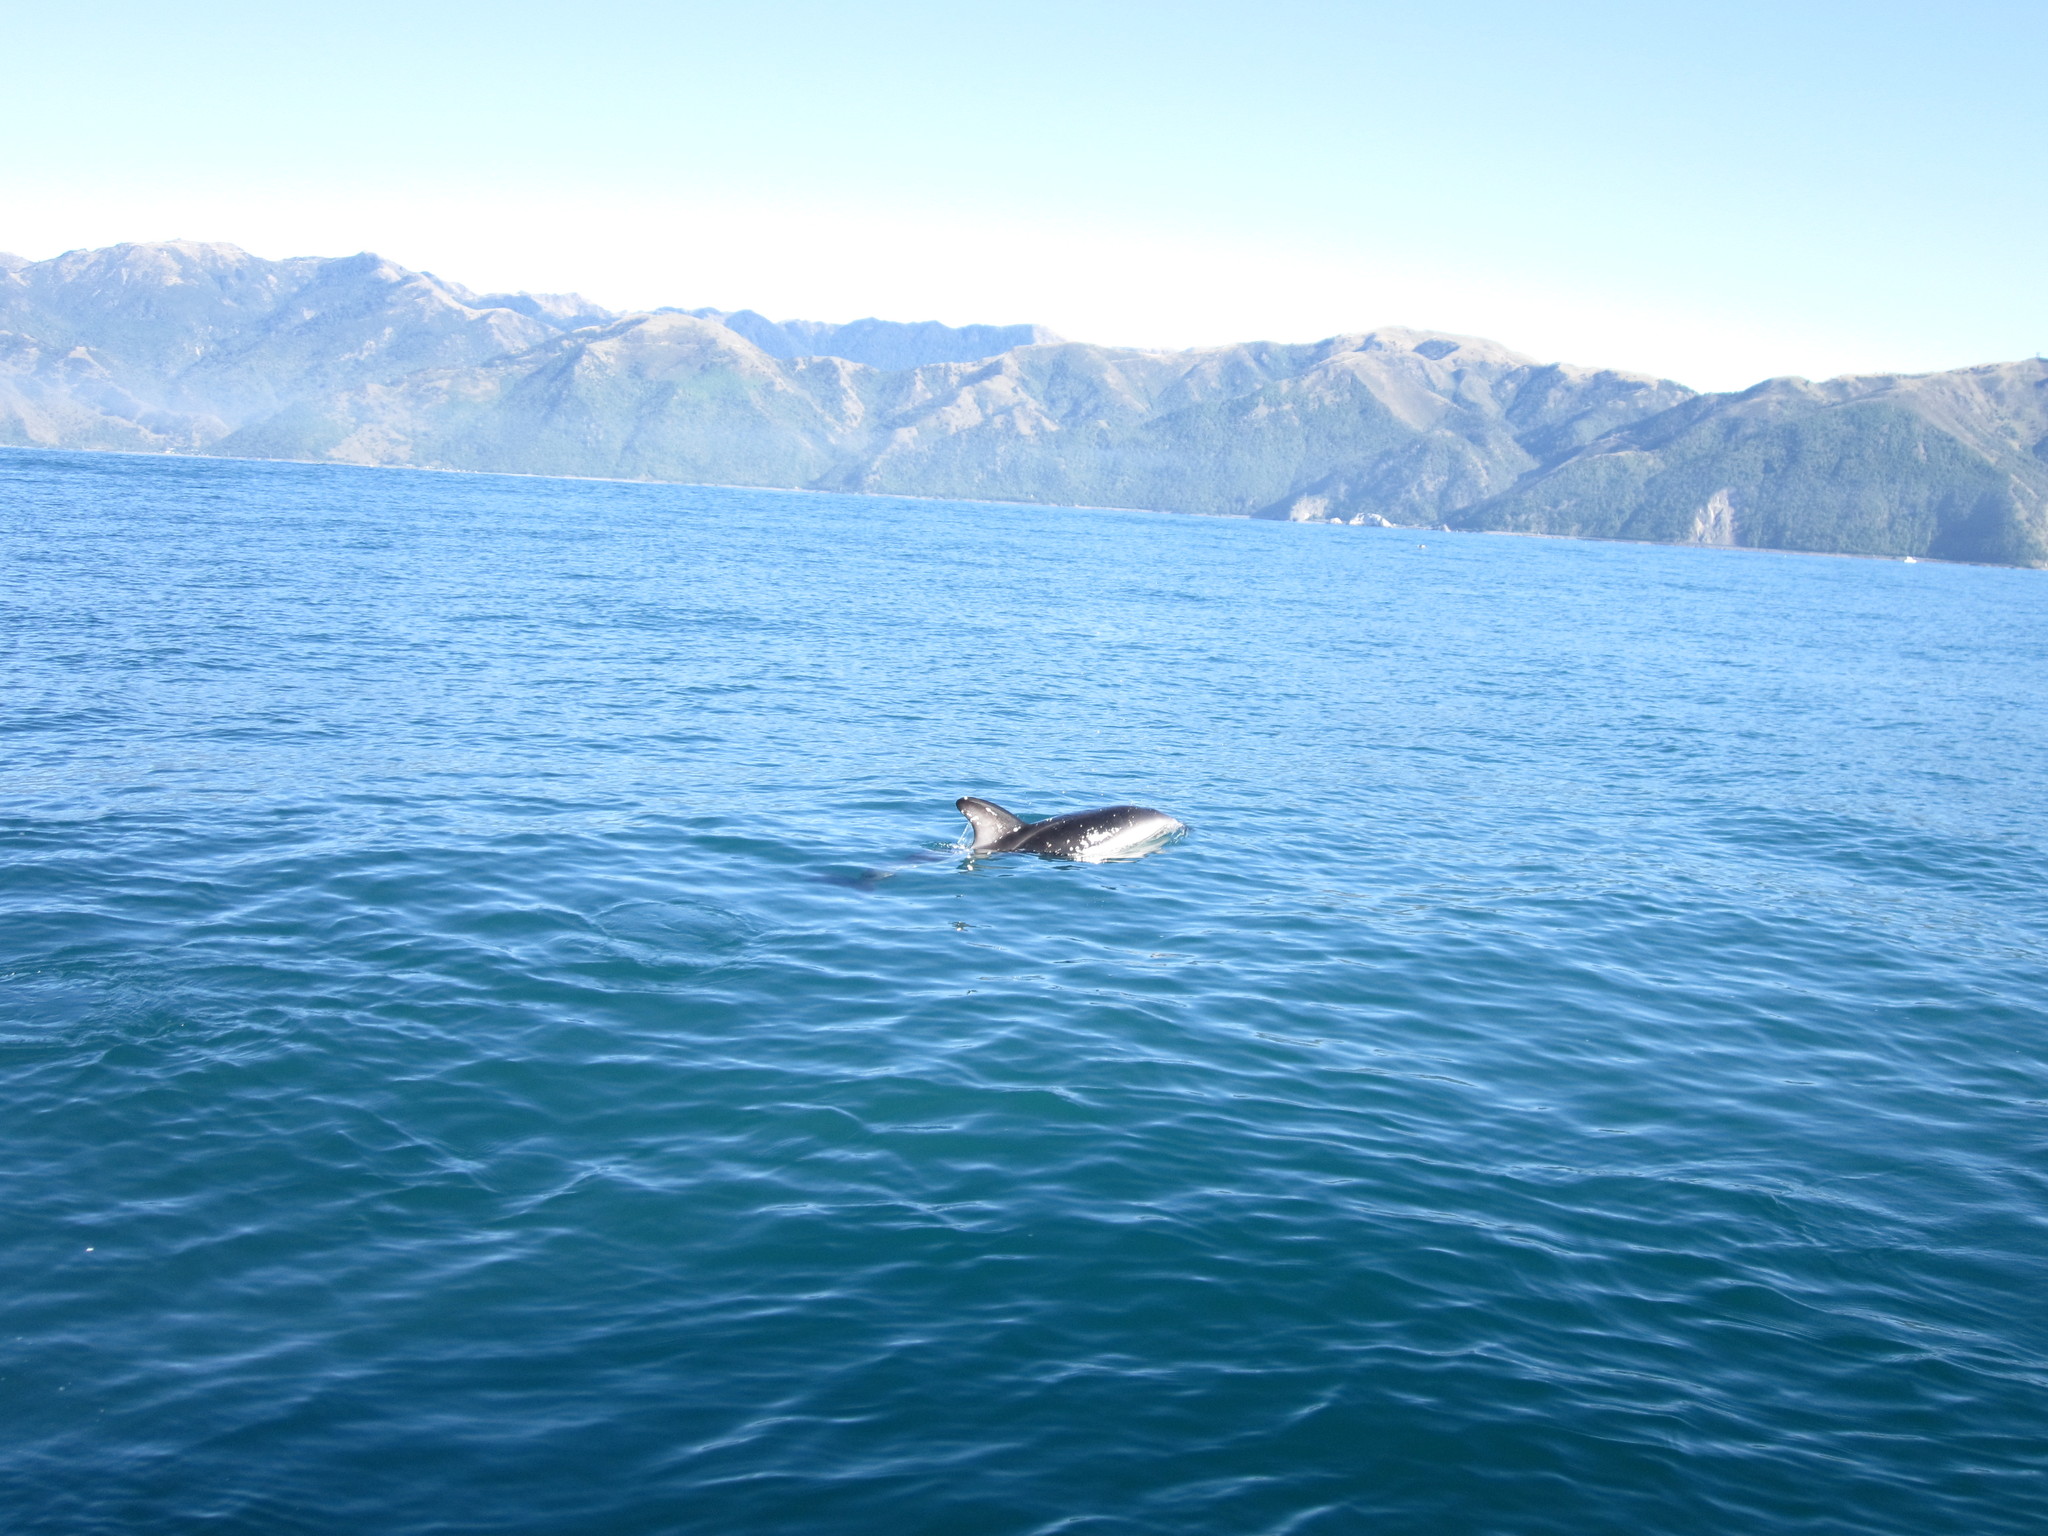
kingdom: Animalia
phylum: Chordata
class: Mammalia
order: Cetacea
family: Delphinidae
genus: Lagenorhynchus
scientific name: Lagenorhynchus obscurus
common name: Dusky dolphin
